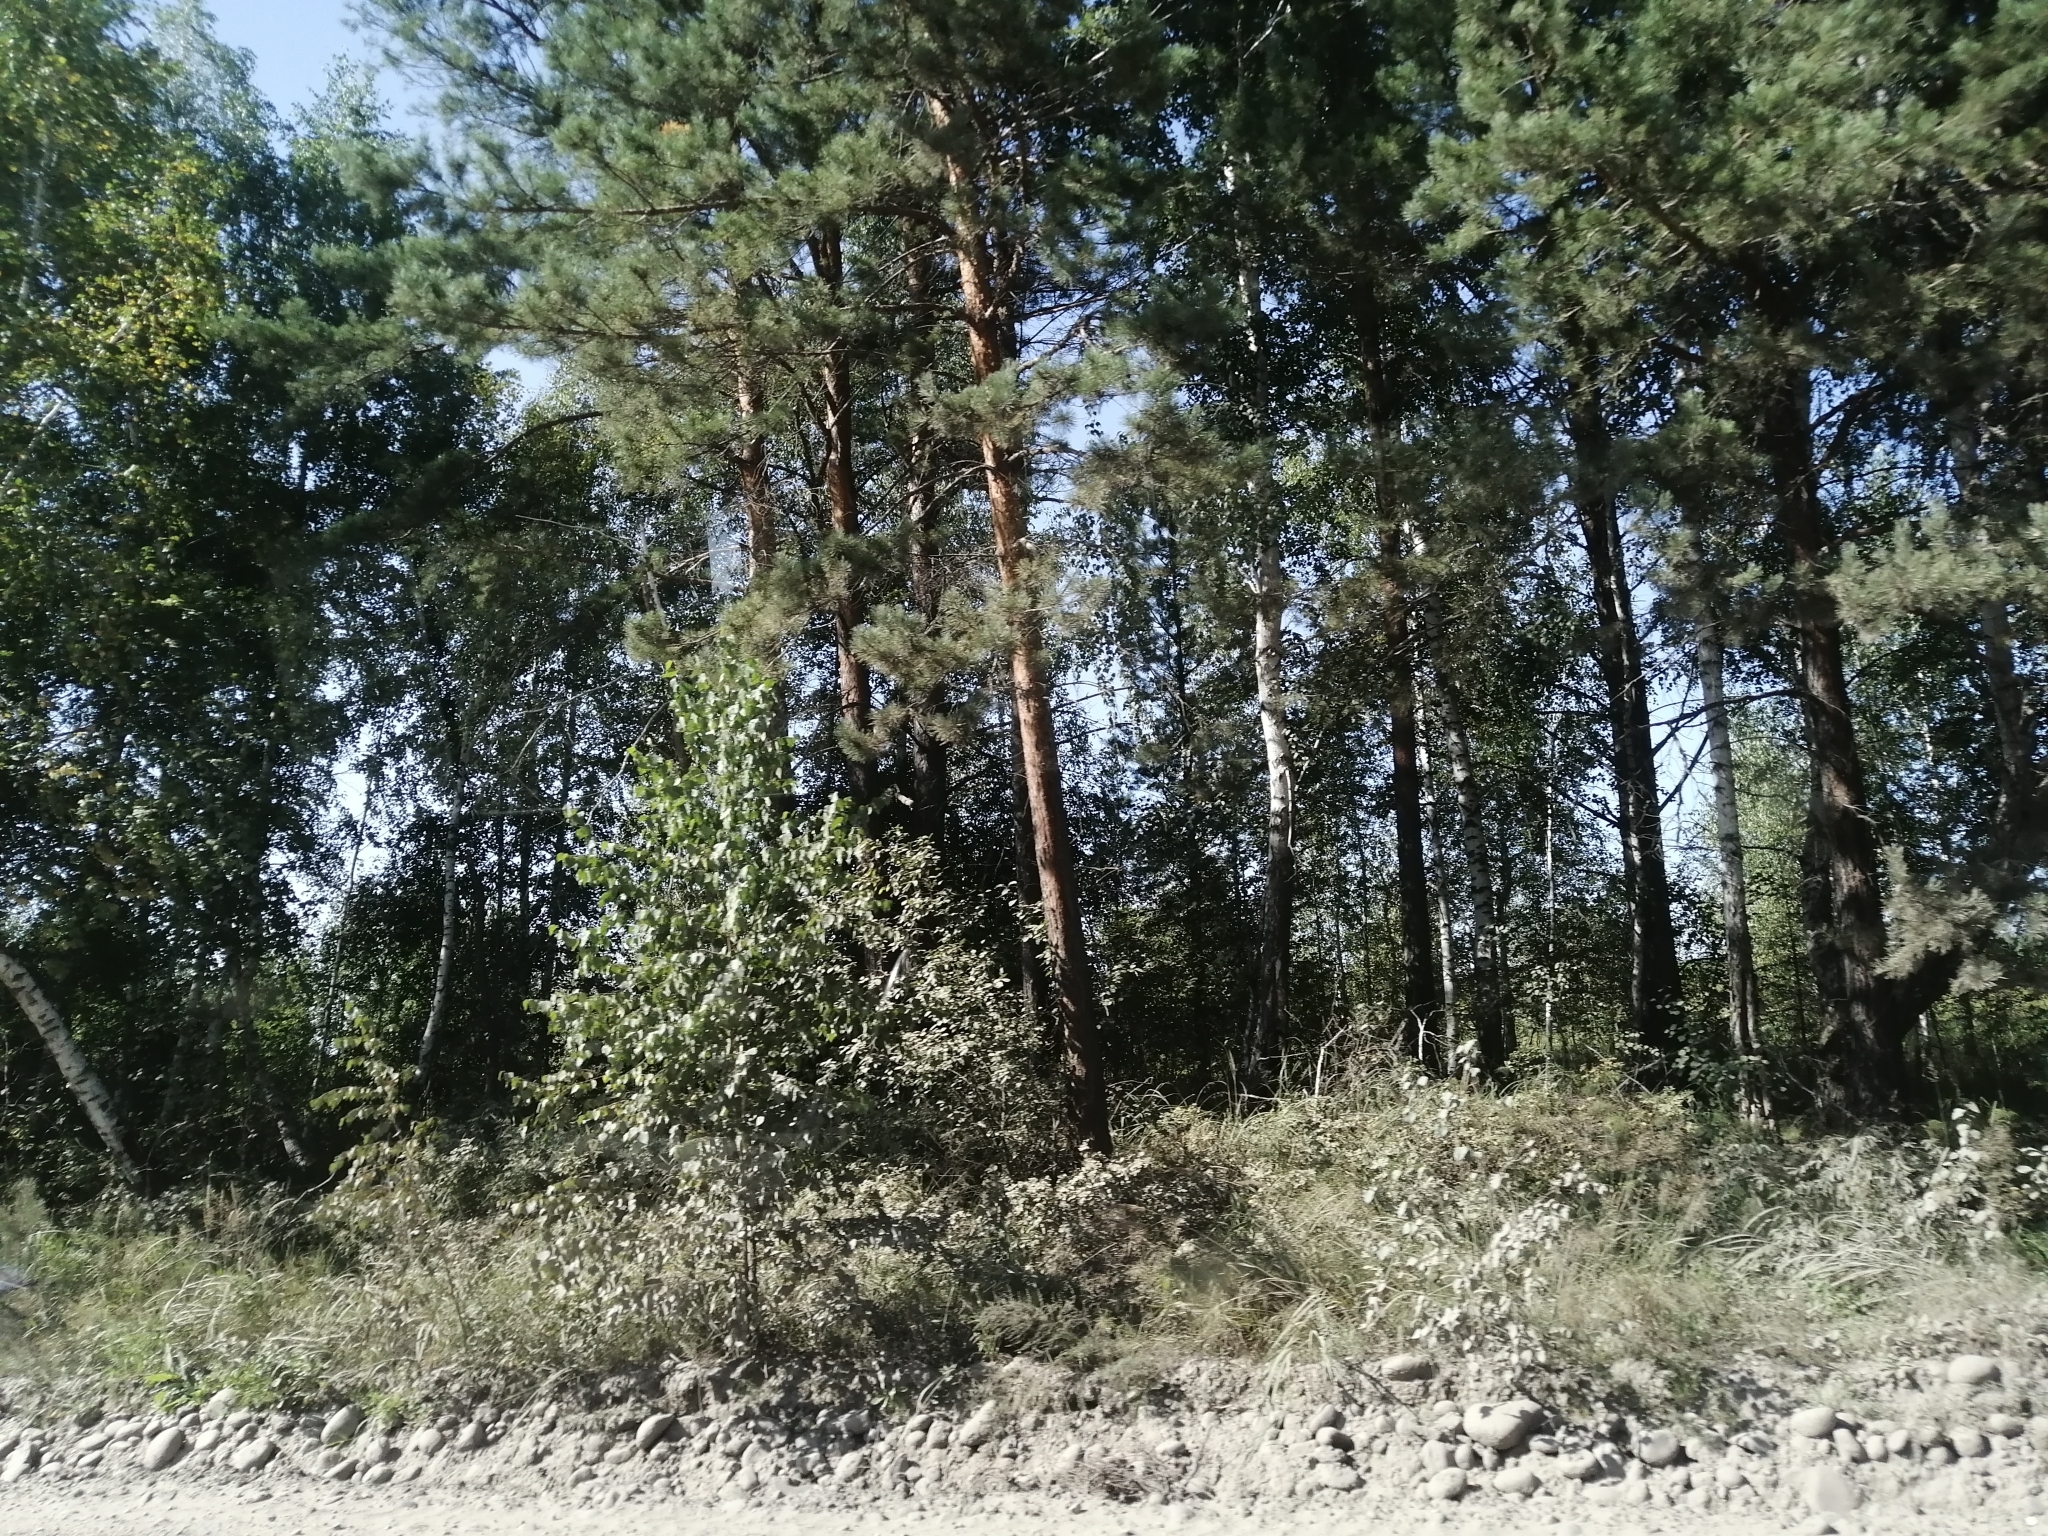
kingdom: Plantae
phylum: Tracheophyta
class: Pinopsida
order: Pinales
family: Pinaceae
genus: Pinus
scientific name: Pinus sylvestris
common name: Scots pine
